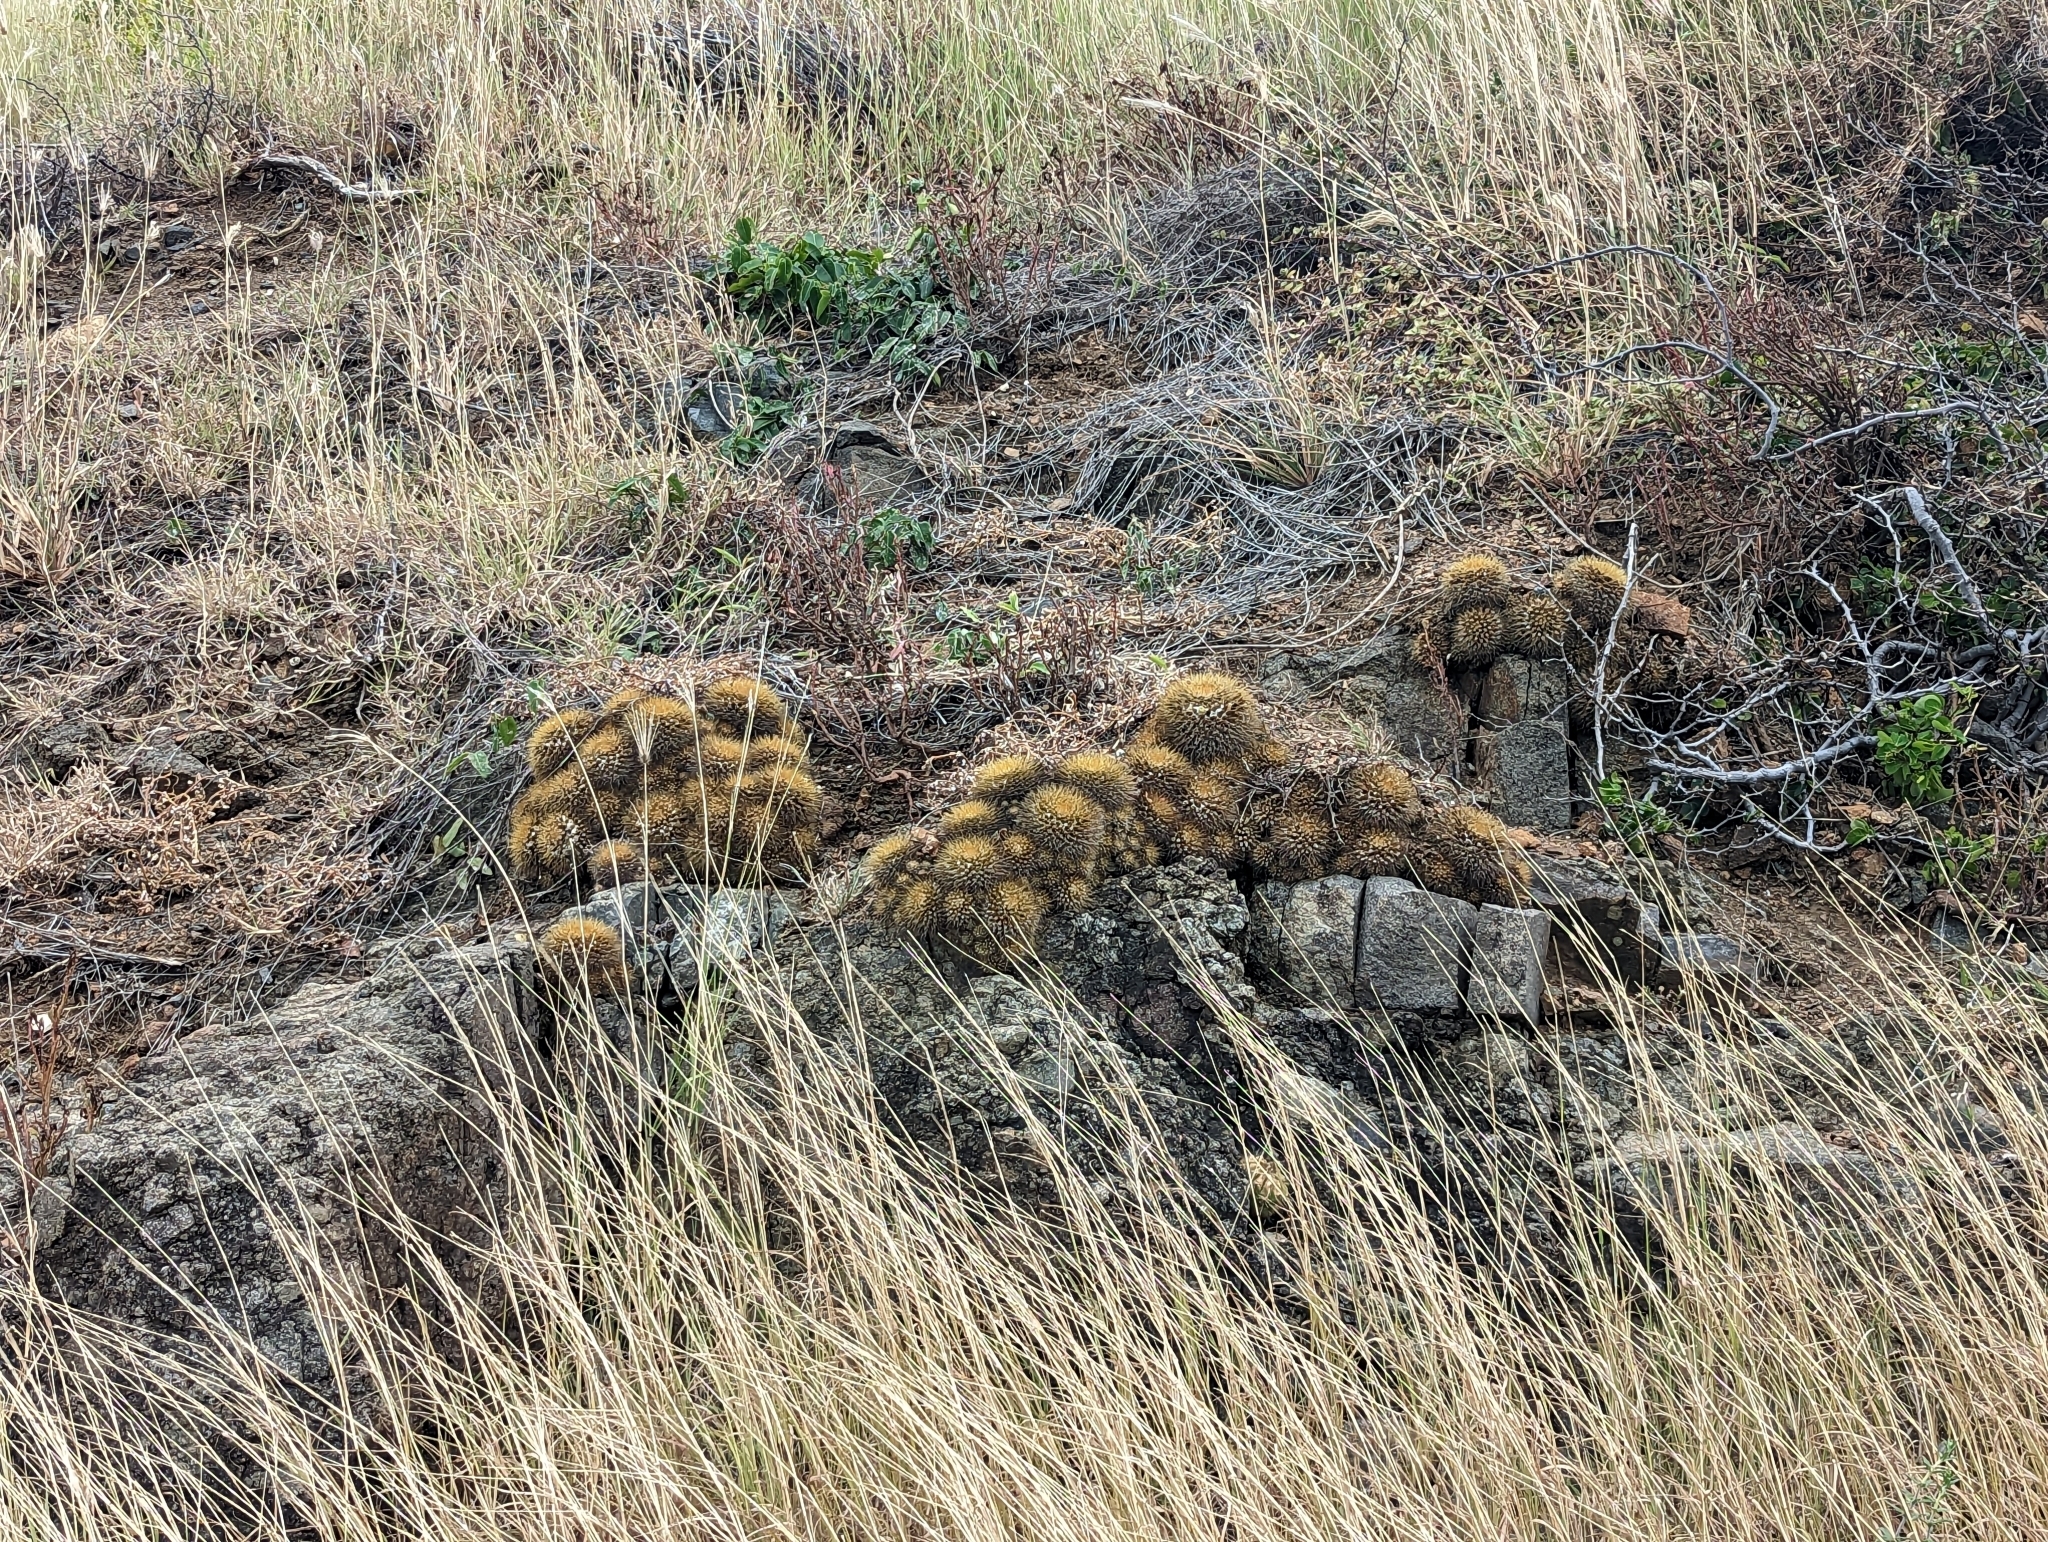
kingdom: Plantae
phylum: Tracheophyta
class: Magnoliopsida
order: Caryophyllales
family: Cactaceae
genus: Mammillaria
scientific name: Mammillaria nivosa
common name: Woolly nipple cactus
